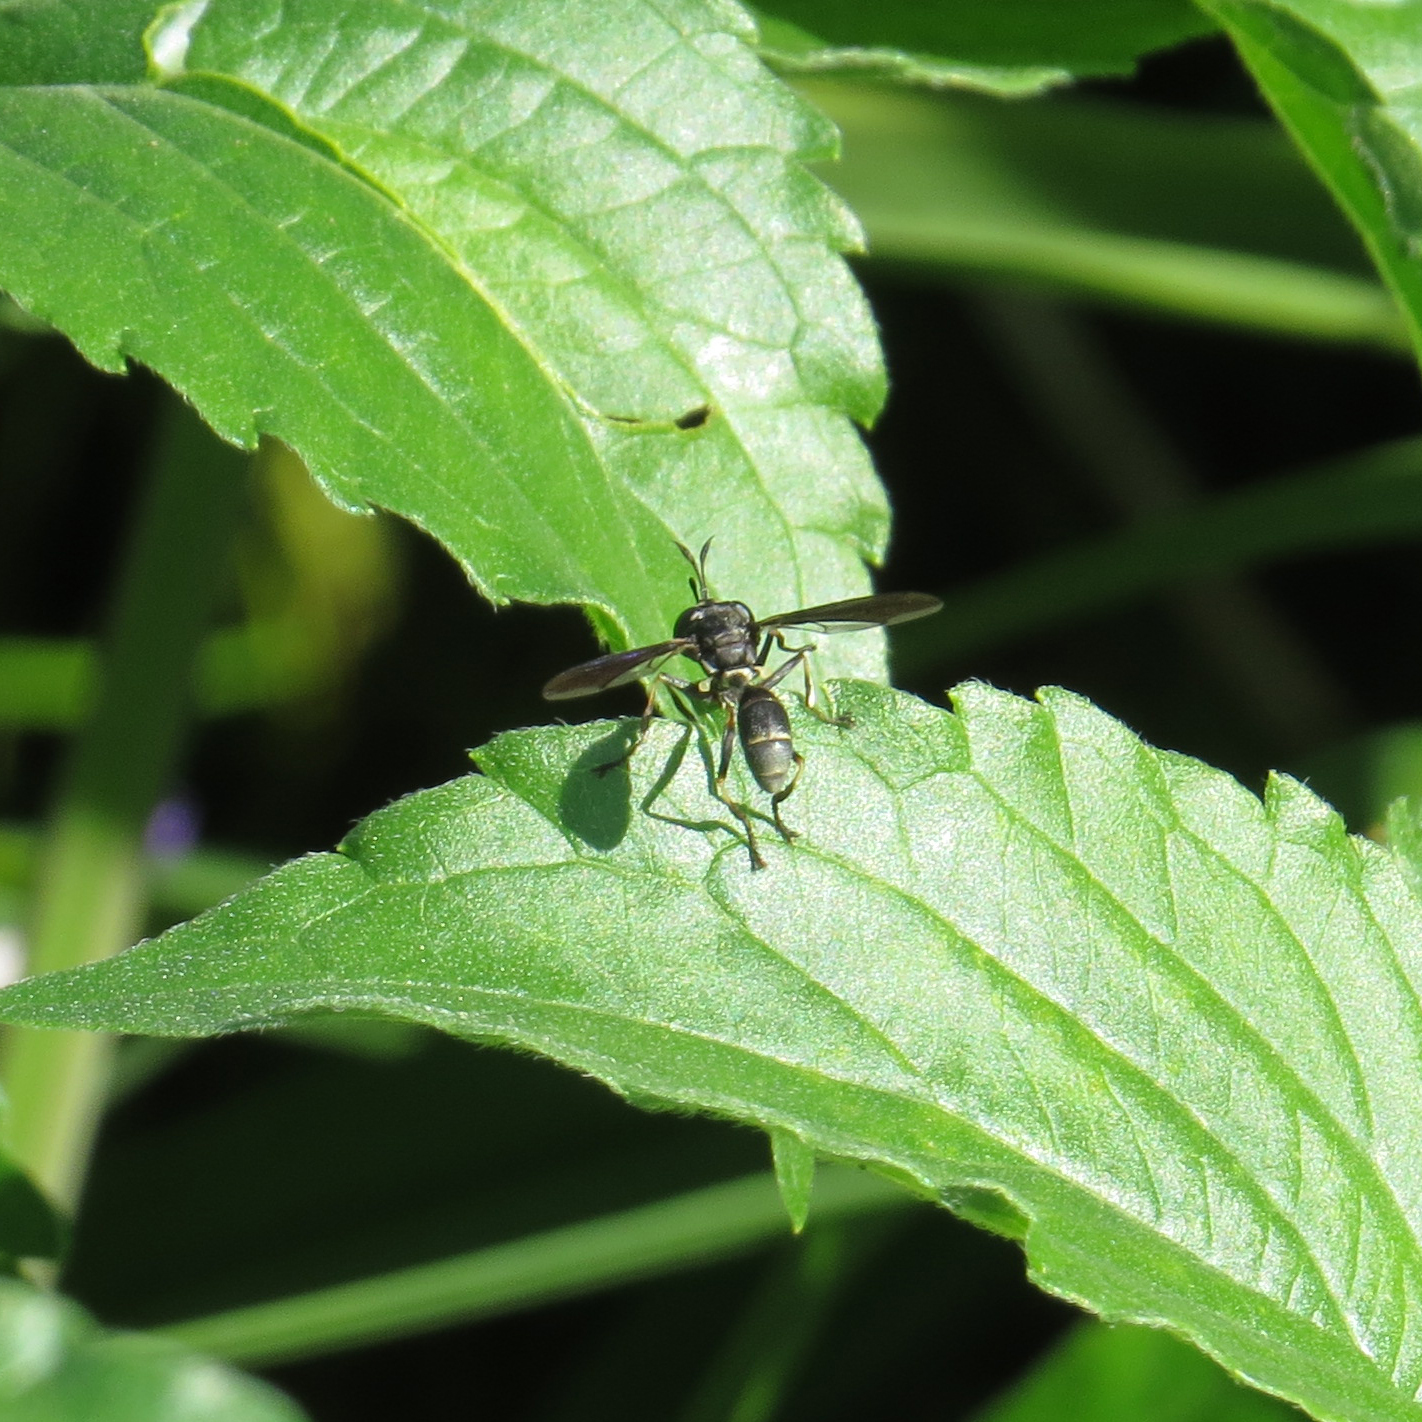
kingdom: Animalia
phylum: Arthropoda
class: Insecta
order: Diptera
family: Conopidae
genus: Physocephala
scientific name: Physocephala tibialis
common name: Common eastern physocephala
